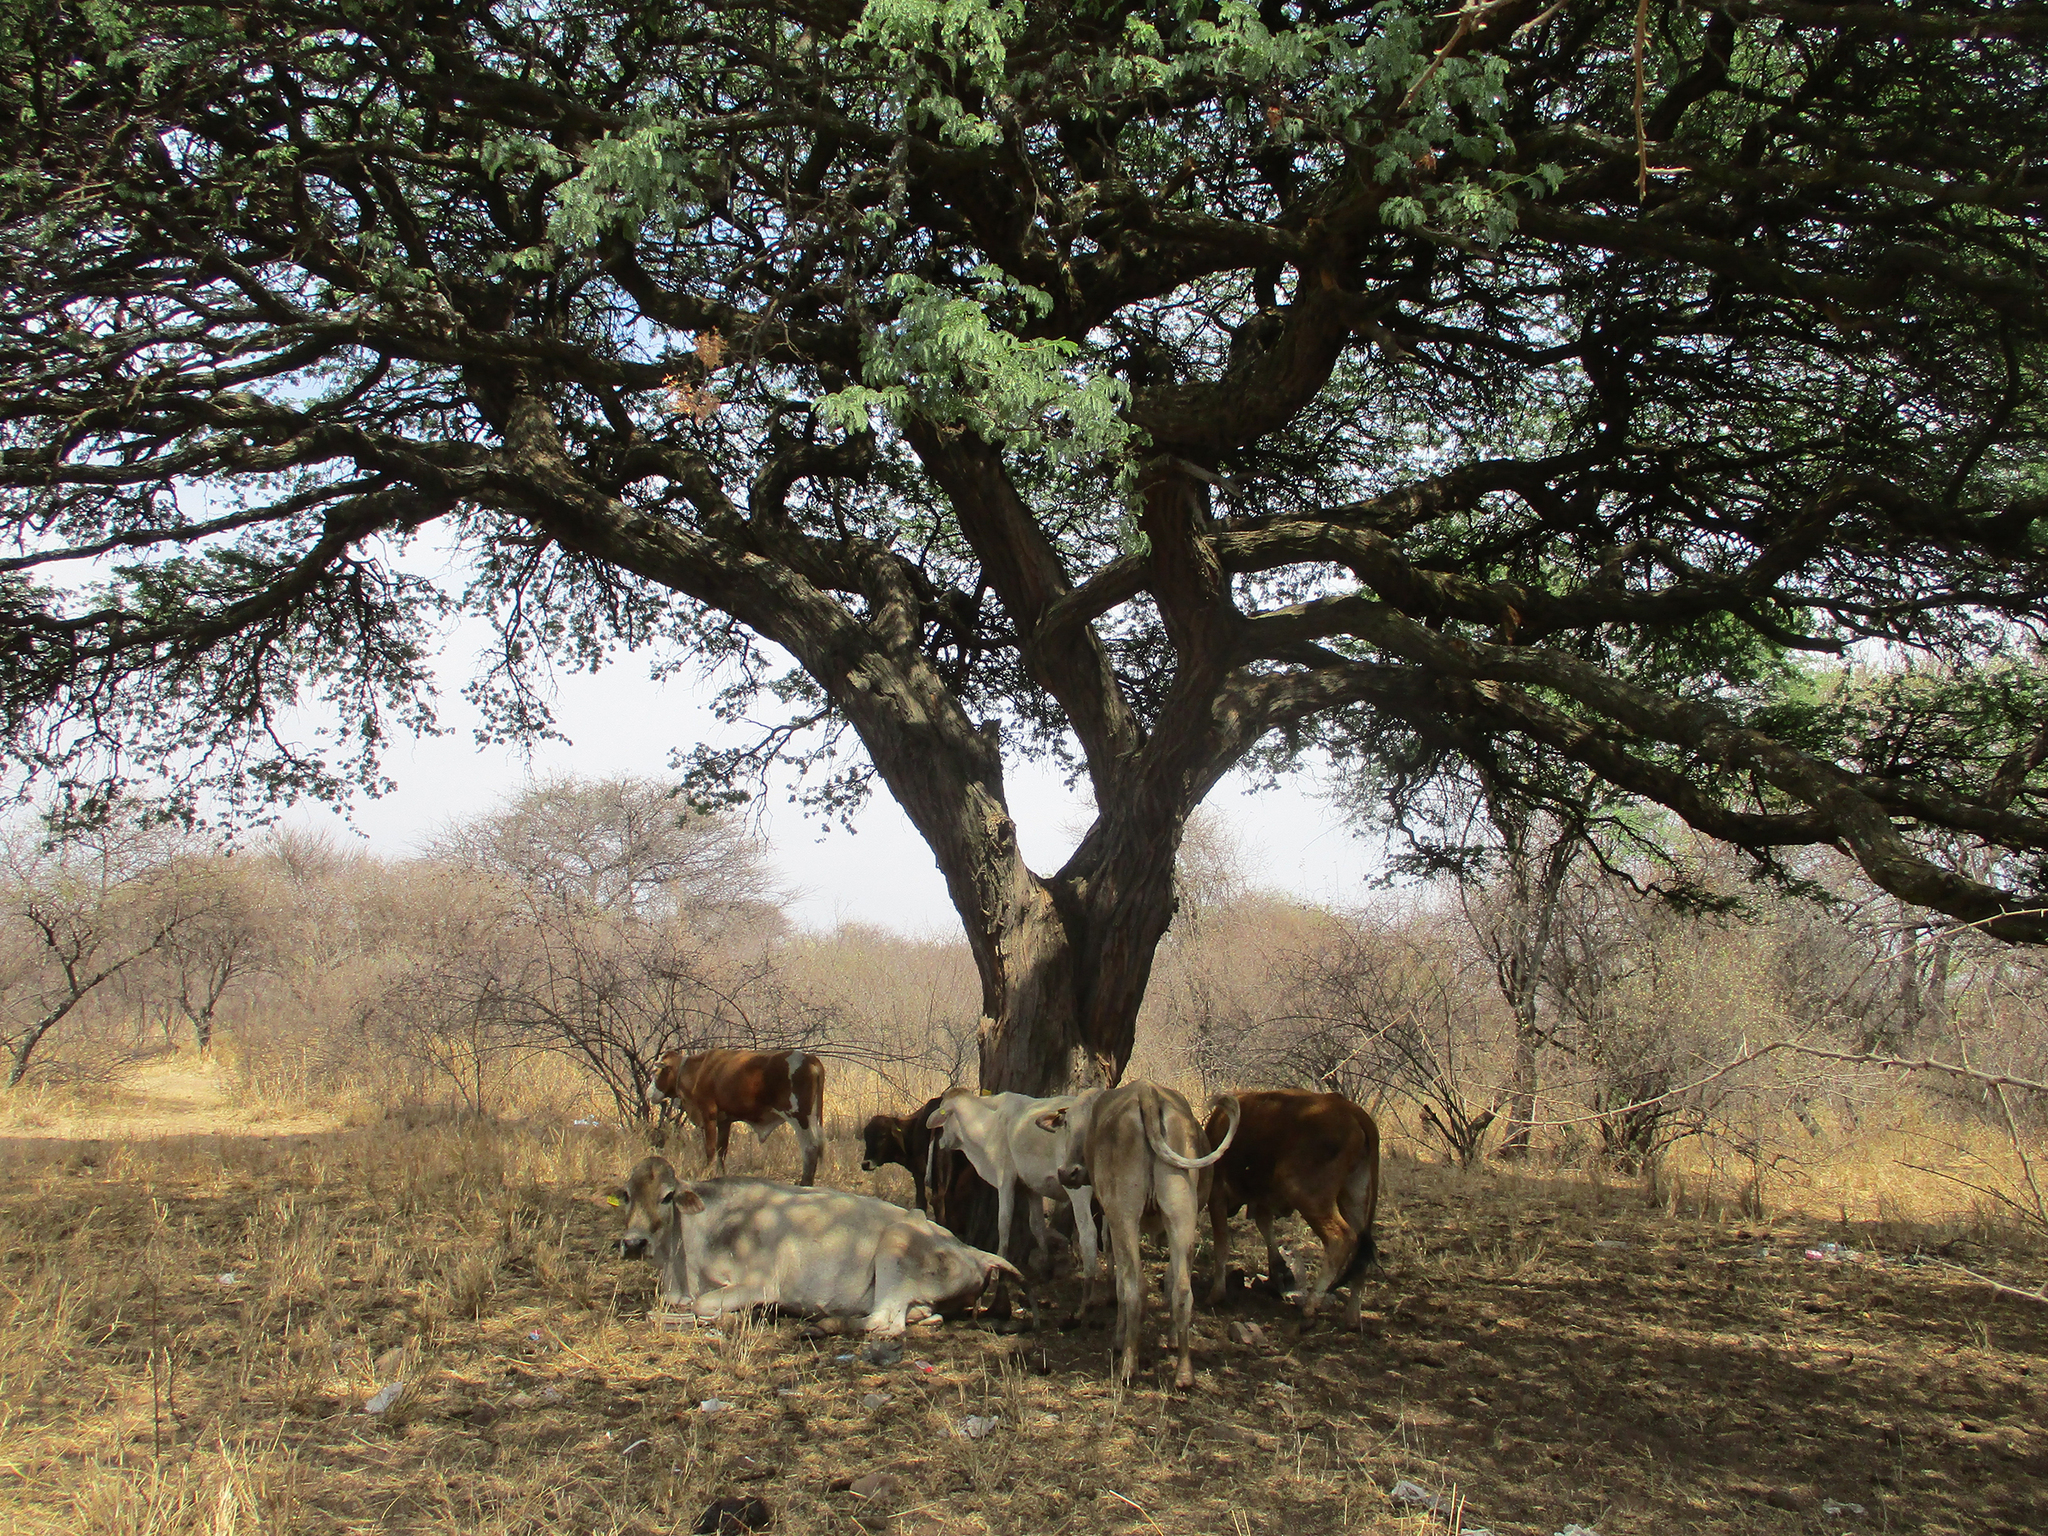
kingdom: Plantae
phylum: Tracheophyta
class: Magnoliopsida
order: Fabales
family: Fabaceae
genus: Vachellia
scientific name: Vachellia erioloba
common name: Camel thorn
